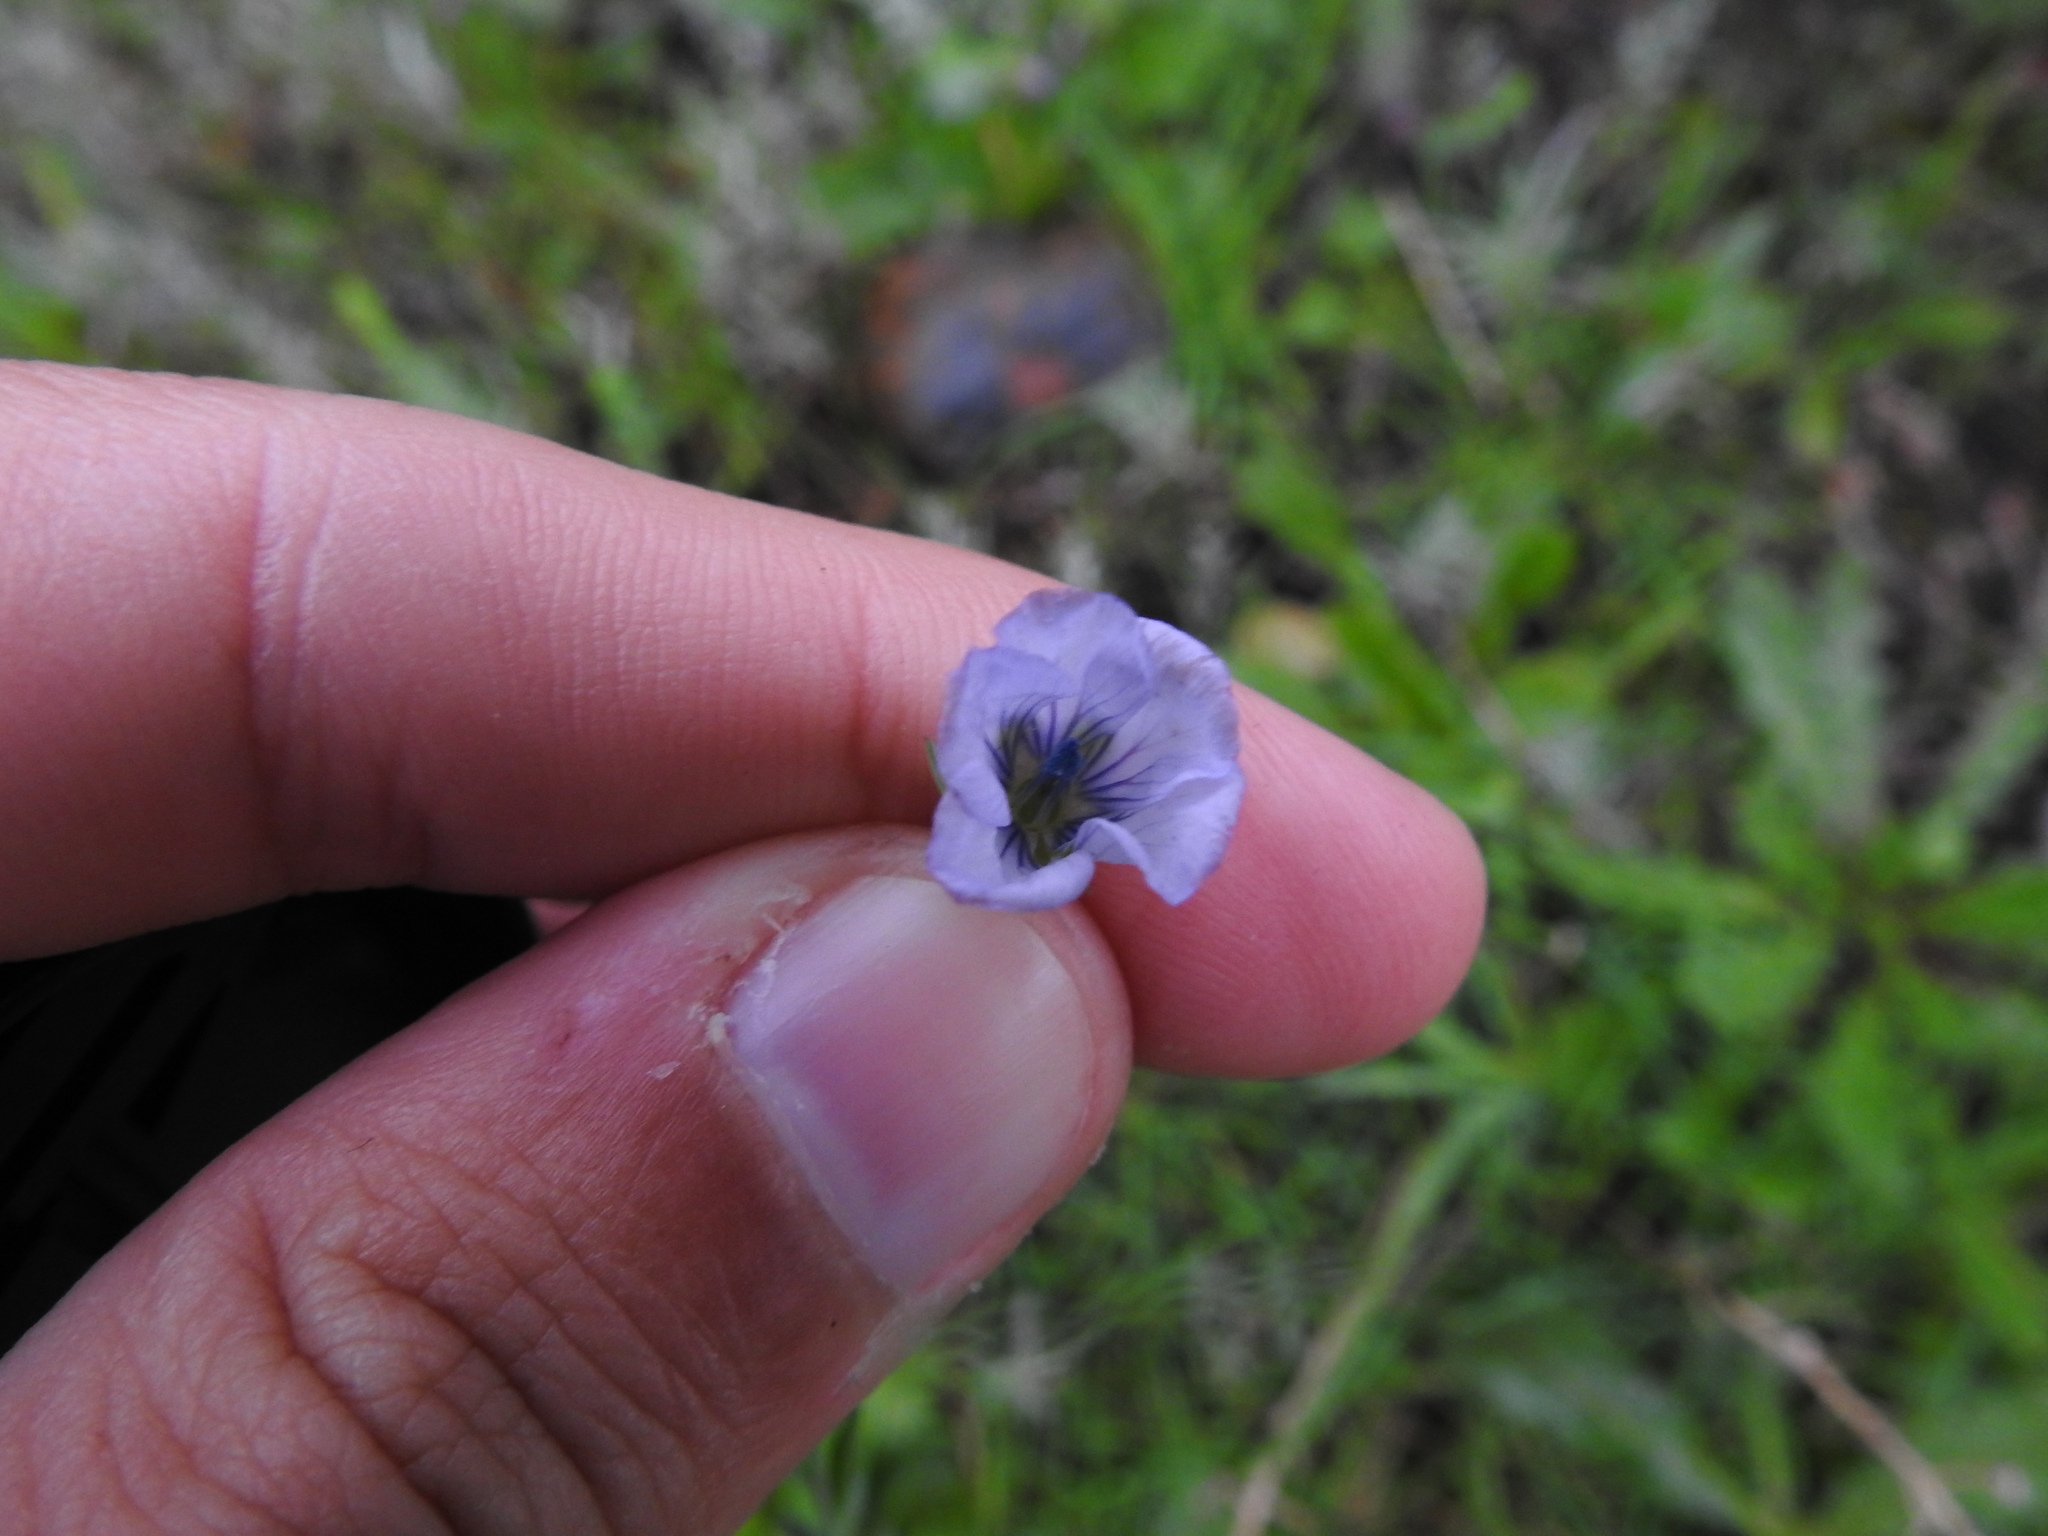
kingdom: Plantae
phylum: Tracheophyta
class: Magnoliopsida
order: Malpighiales
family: Linaceae
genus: Linum
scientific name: Linum bienne
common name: Pale flax
